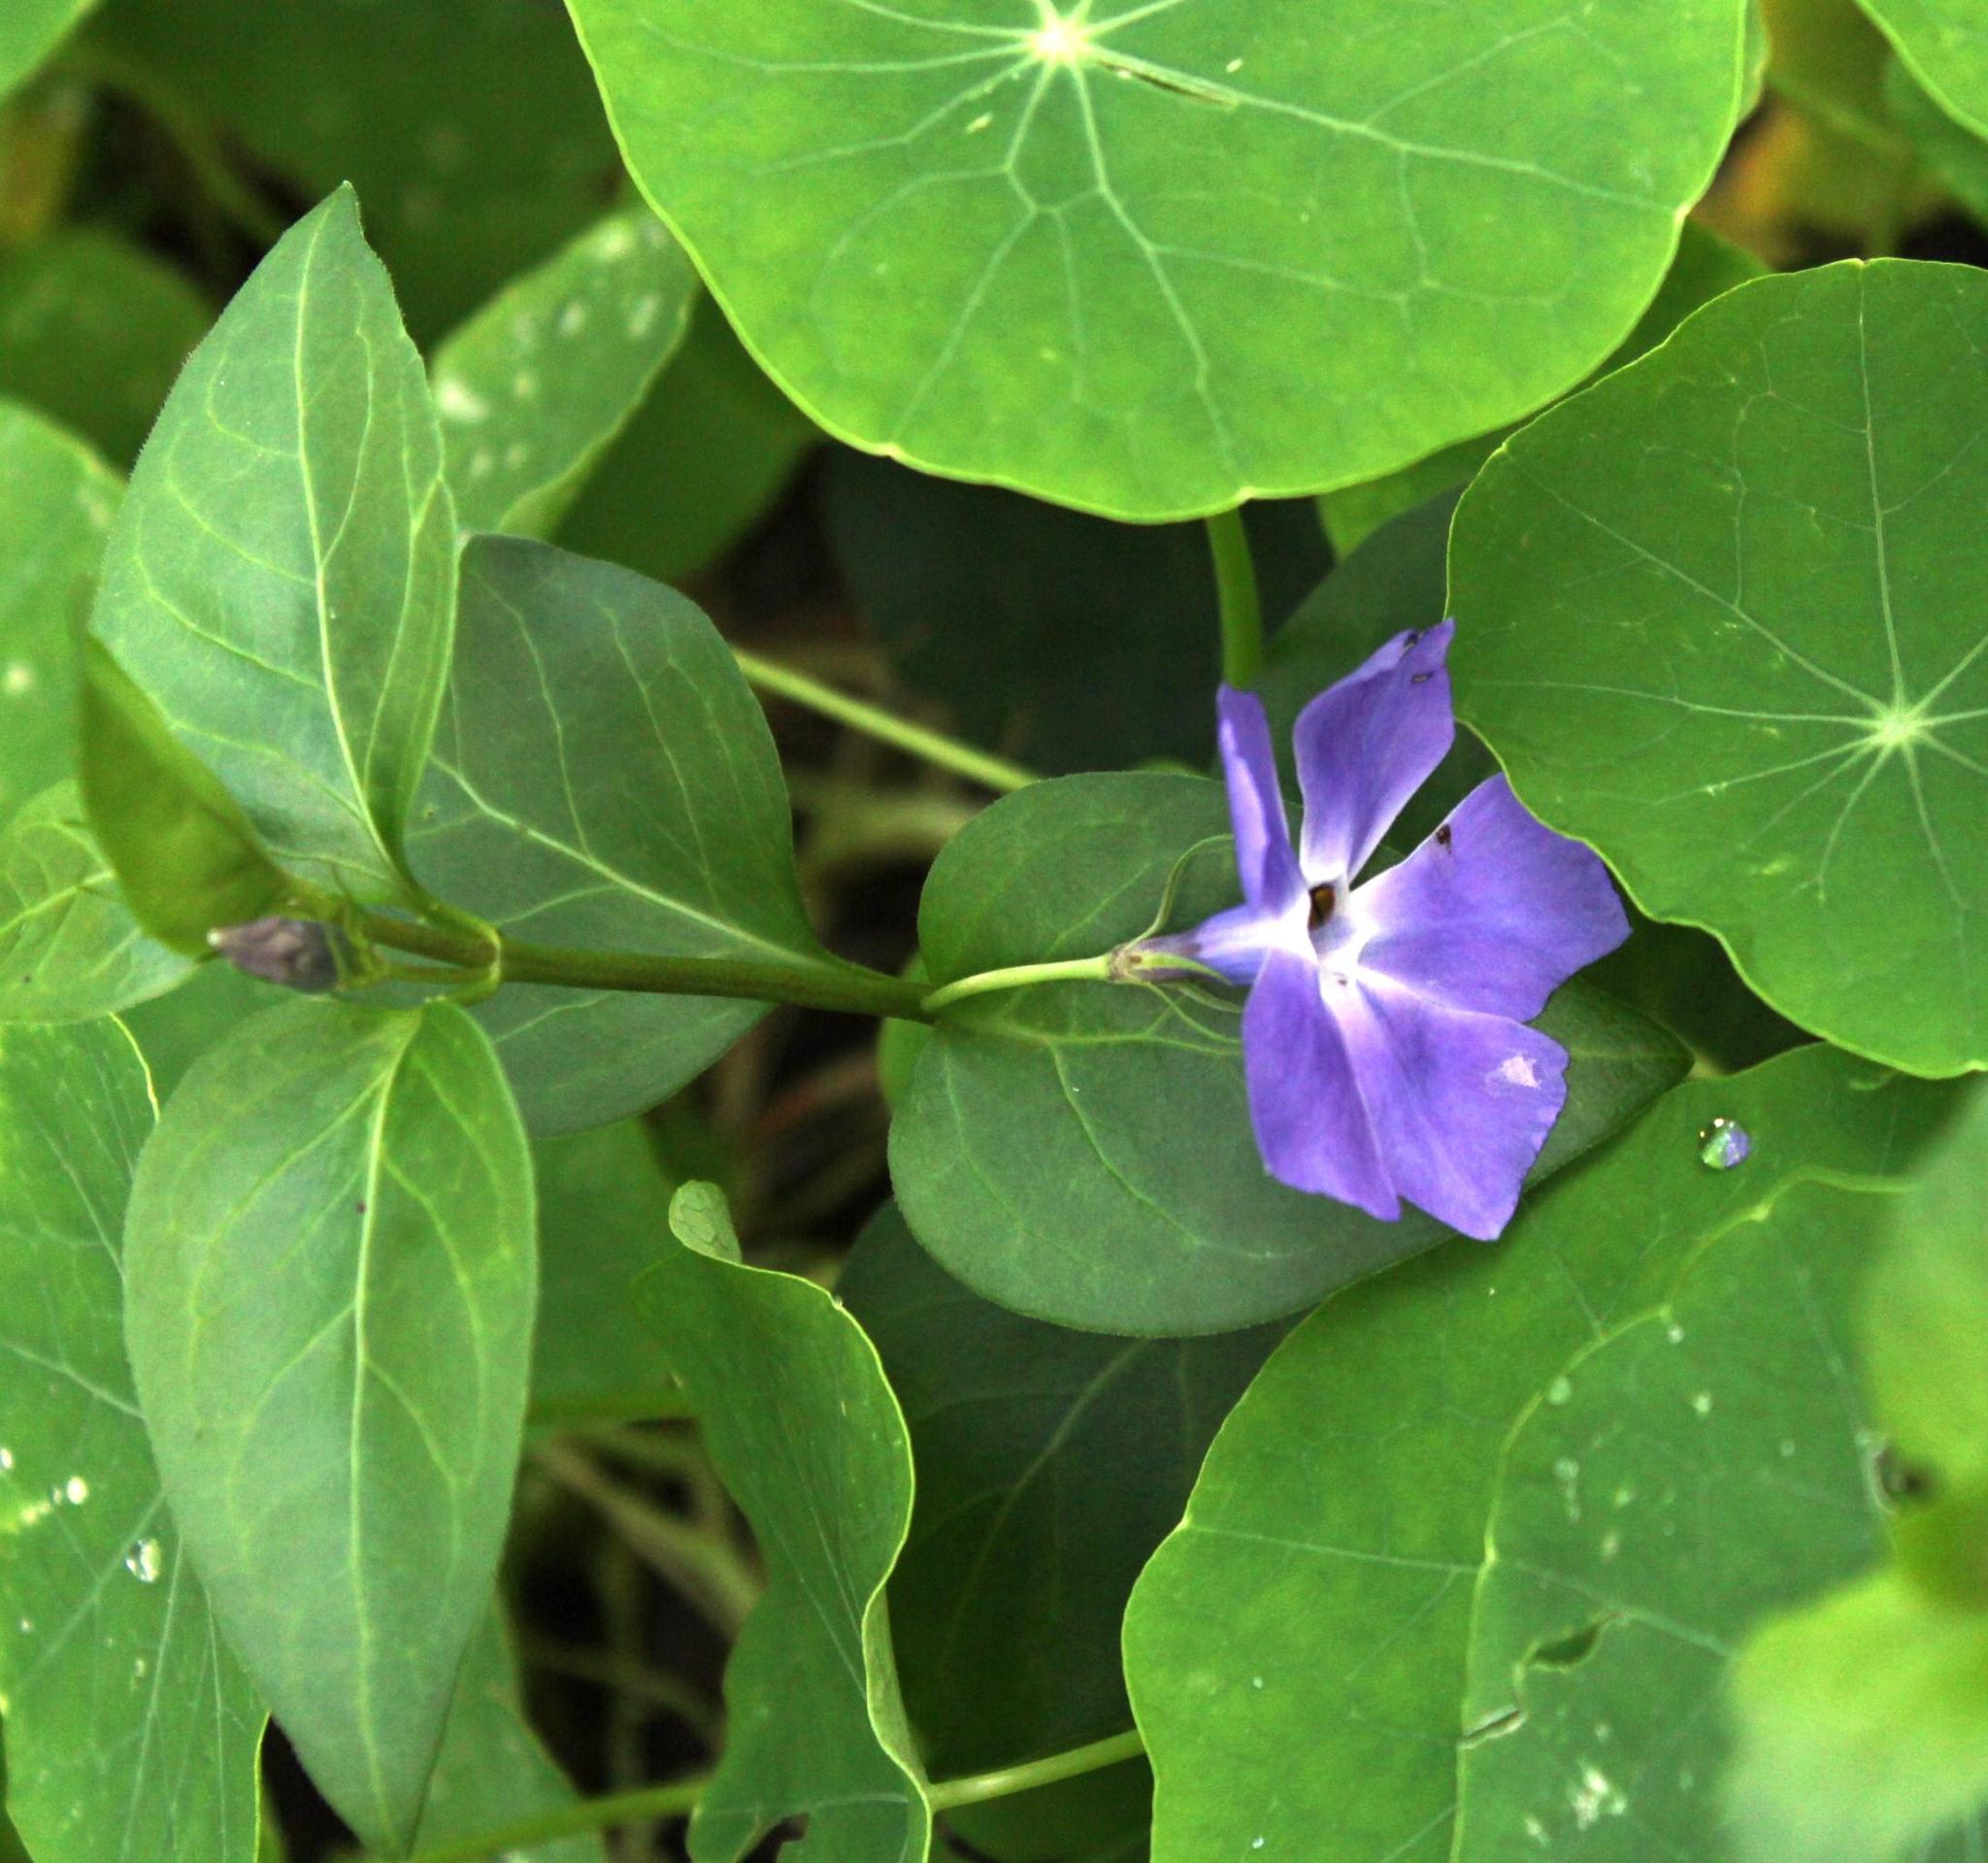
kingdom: Plantae
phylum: Tracheophyta
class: Magnoliopsida
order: Gentianales
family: Apocynaceae
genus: Vinca
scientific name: Vinca major
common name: Greater periwinkle
